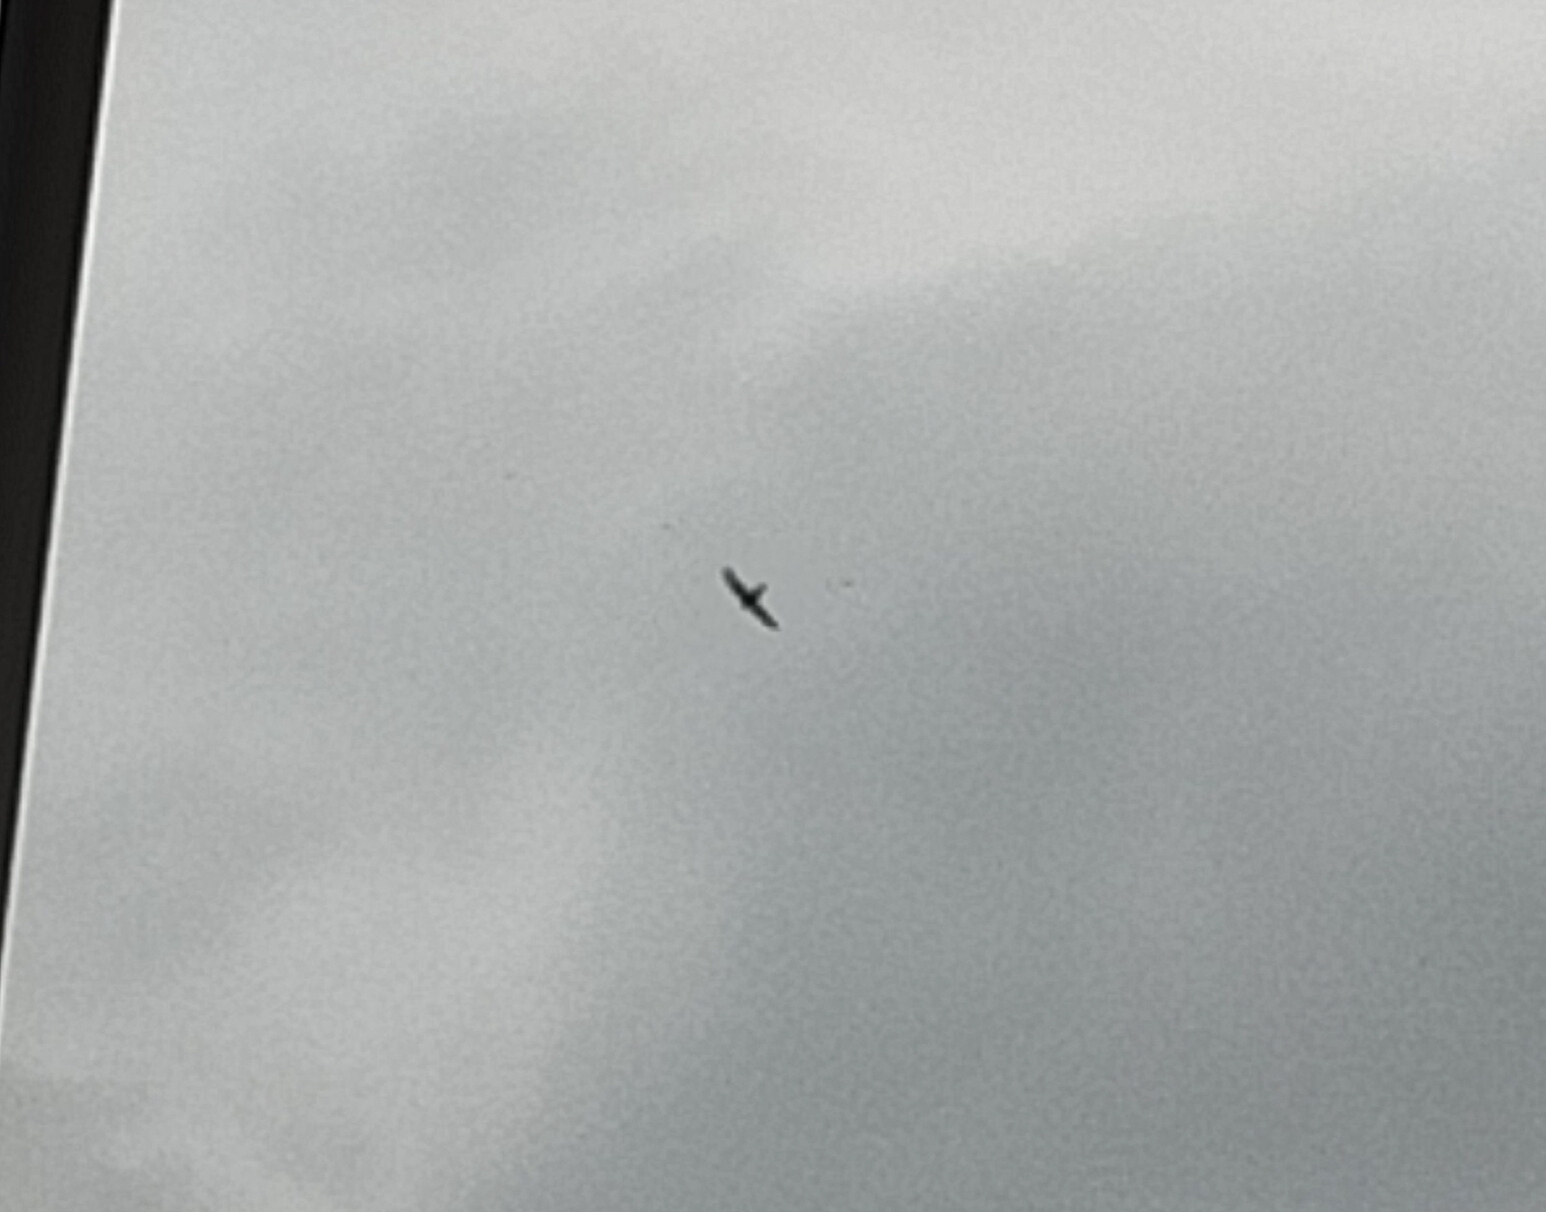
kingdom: Animalia
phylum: Chordata
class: Aves
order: Apodiformes
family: Apodidae
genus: Apus
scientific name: Apus apus
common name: Common swift
